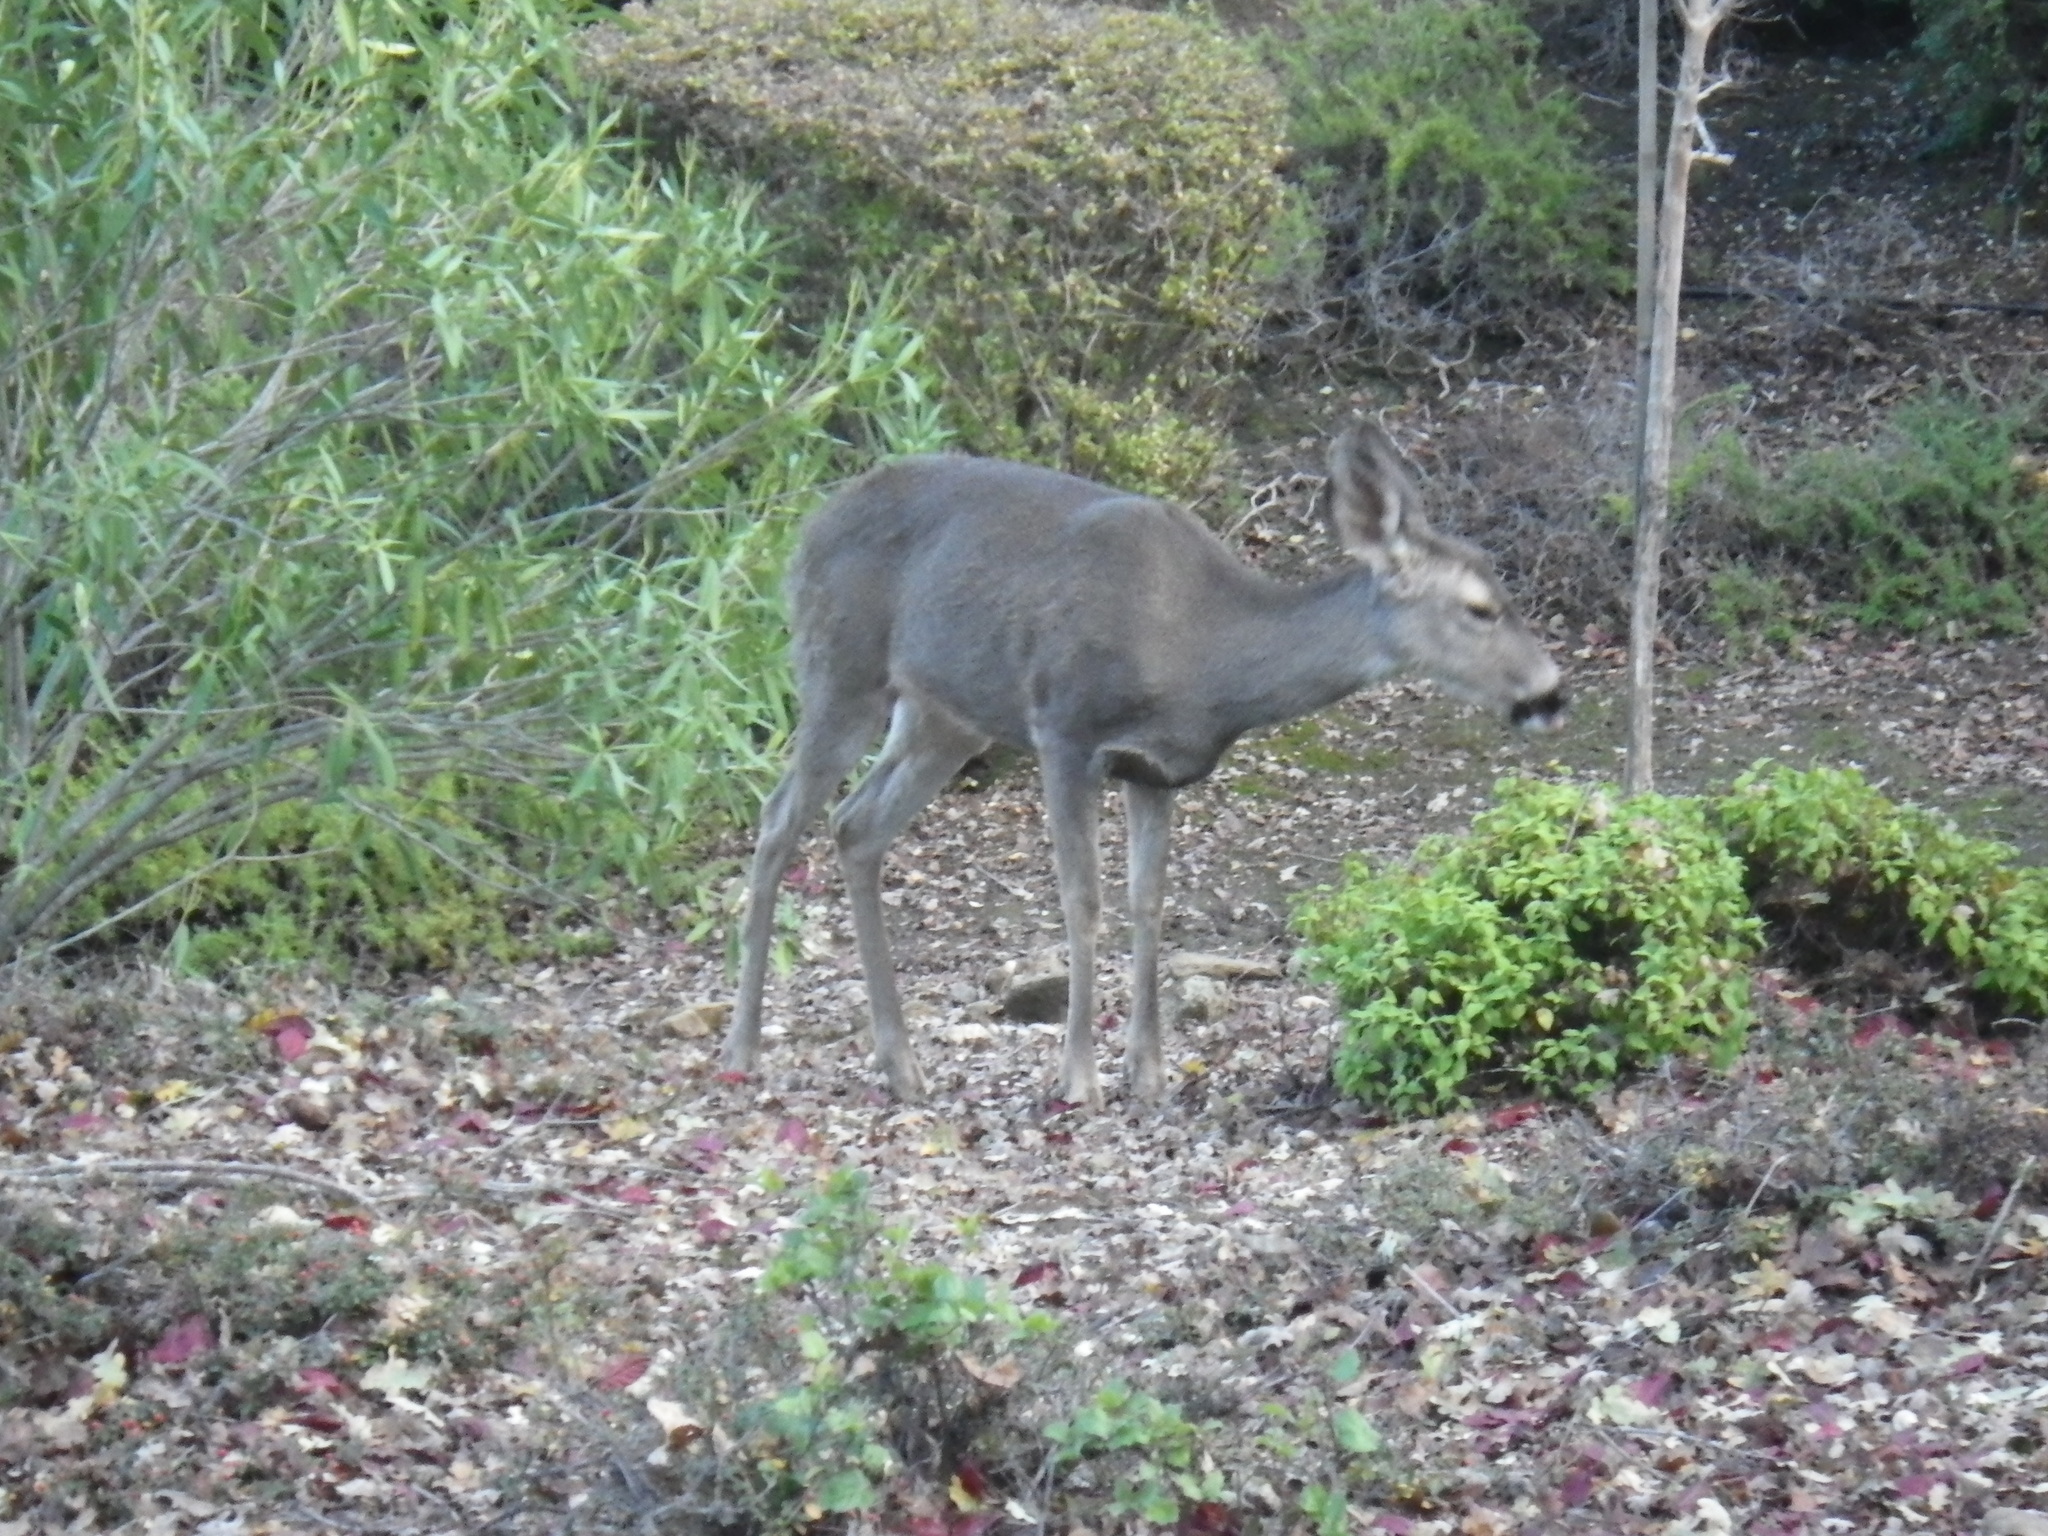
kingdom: Animalia
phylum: Chordata
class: Mammalia
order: Artiodactyla
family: Cervidae
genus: Odocoileus
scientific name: Odocoileus hemionus
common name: Mule deer
